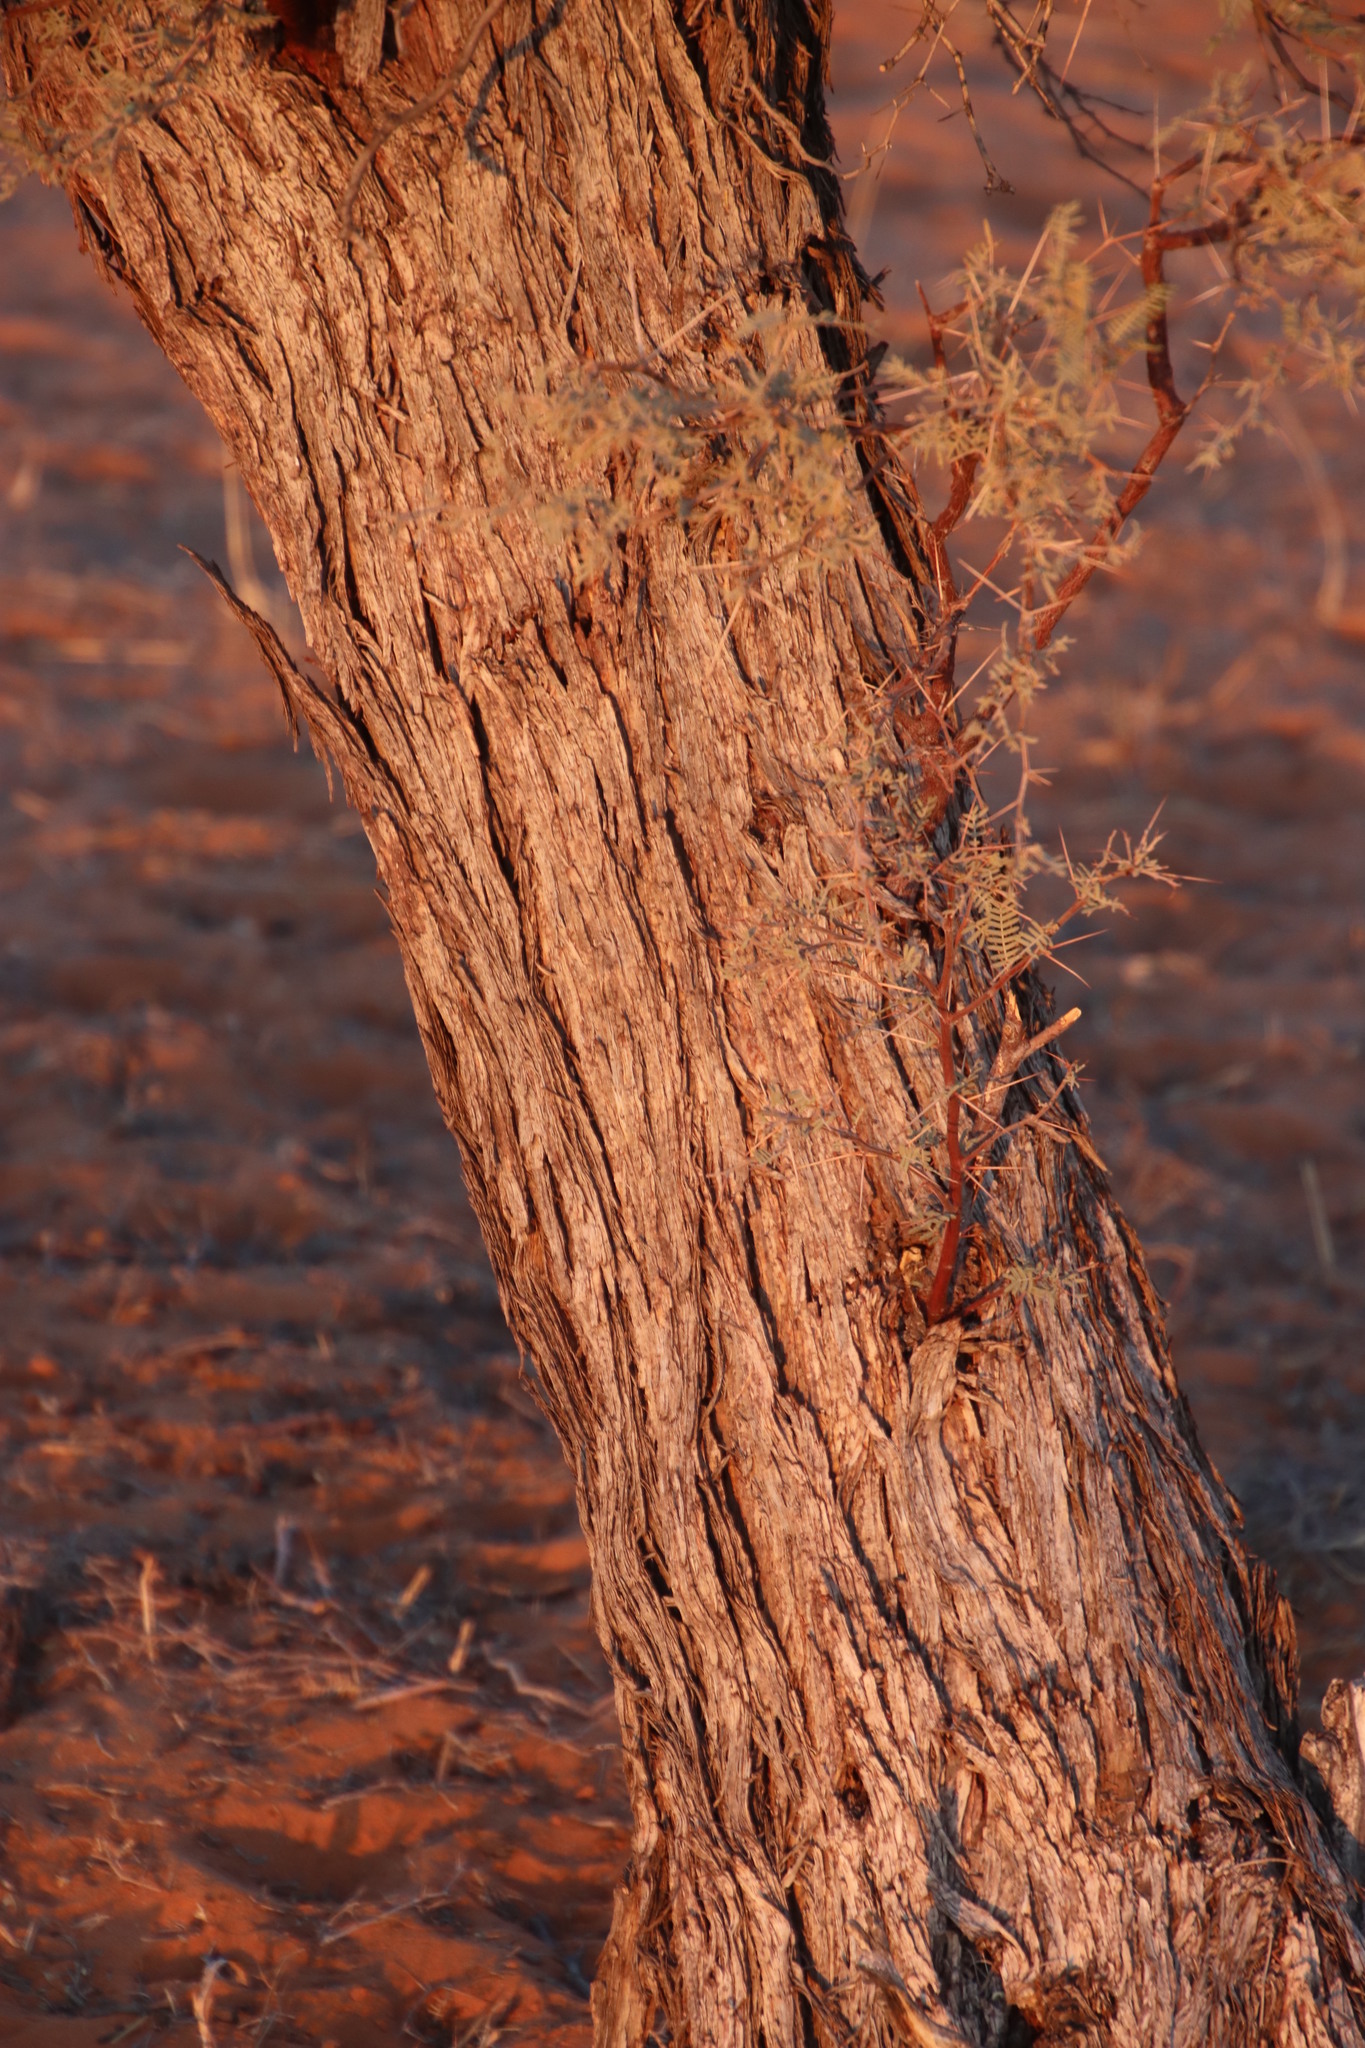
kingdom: Plantae
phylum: Tracheophyta
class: Magnoliopsida
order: Fabales
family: Fabaceae
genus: Vachellia
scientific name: Vachellia haematoxylon
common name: Grey camel thorn
